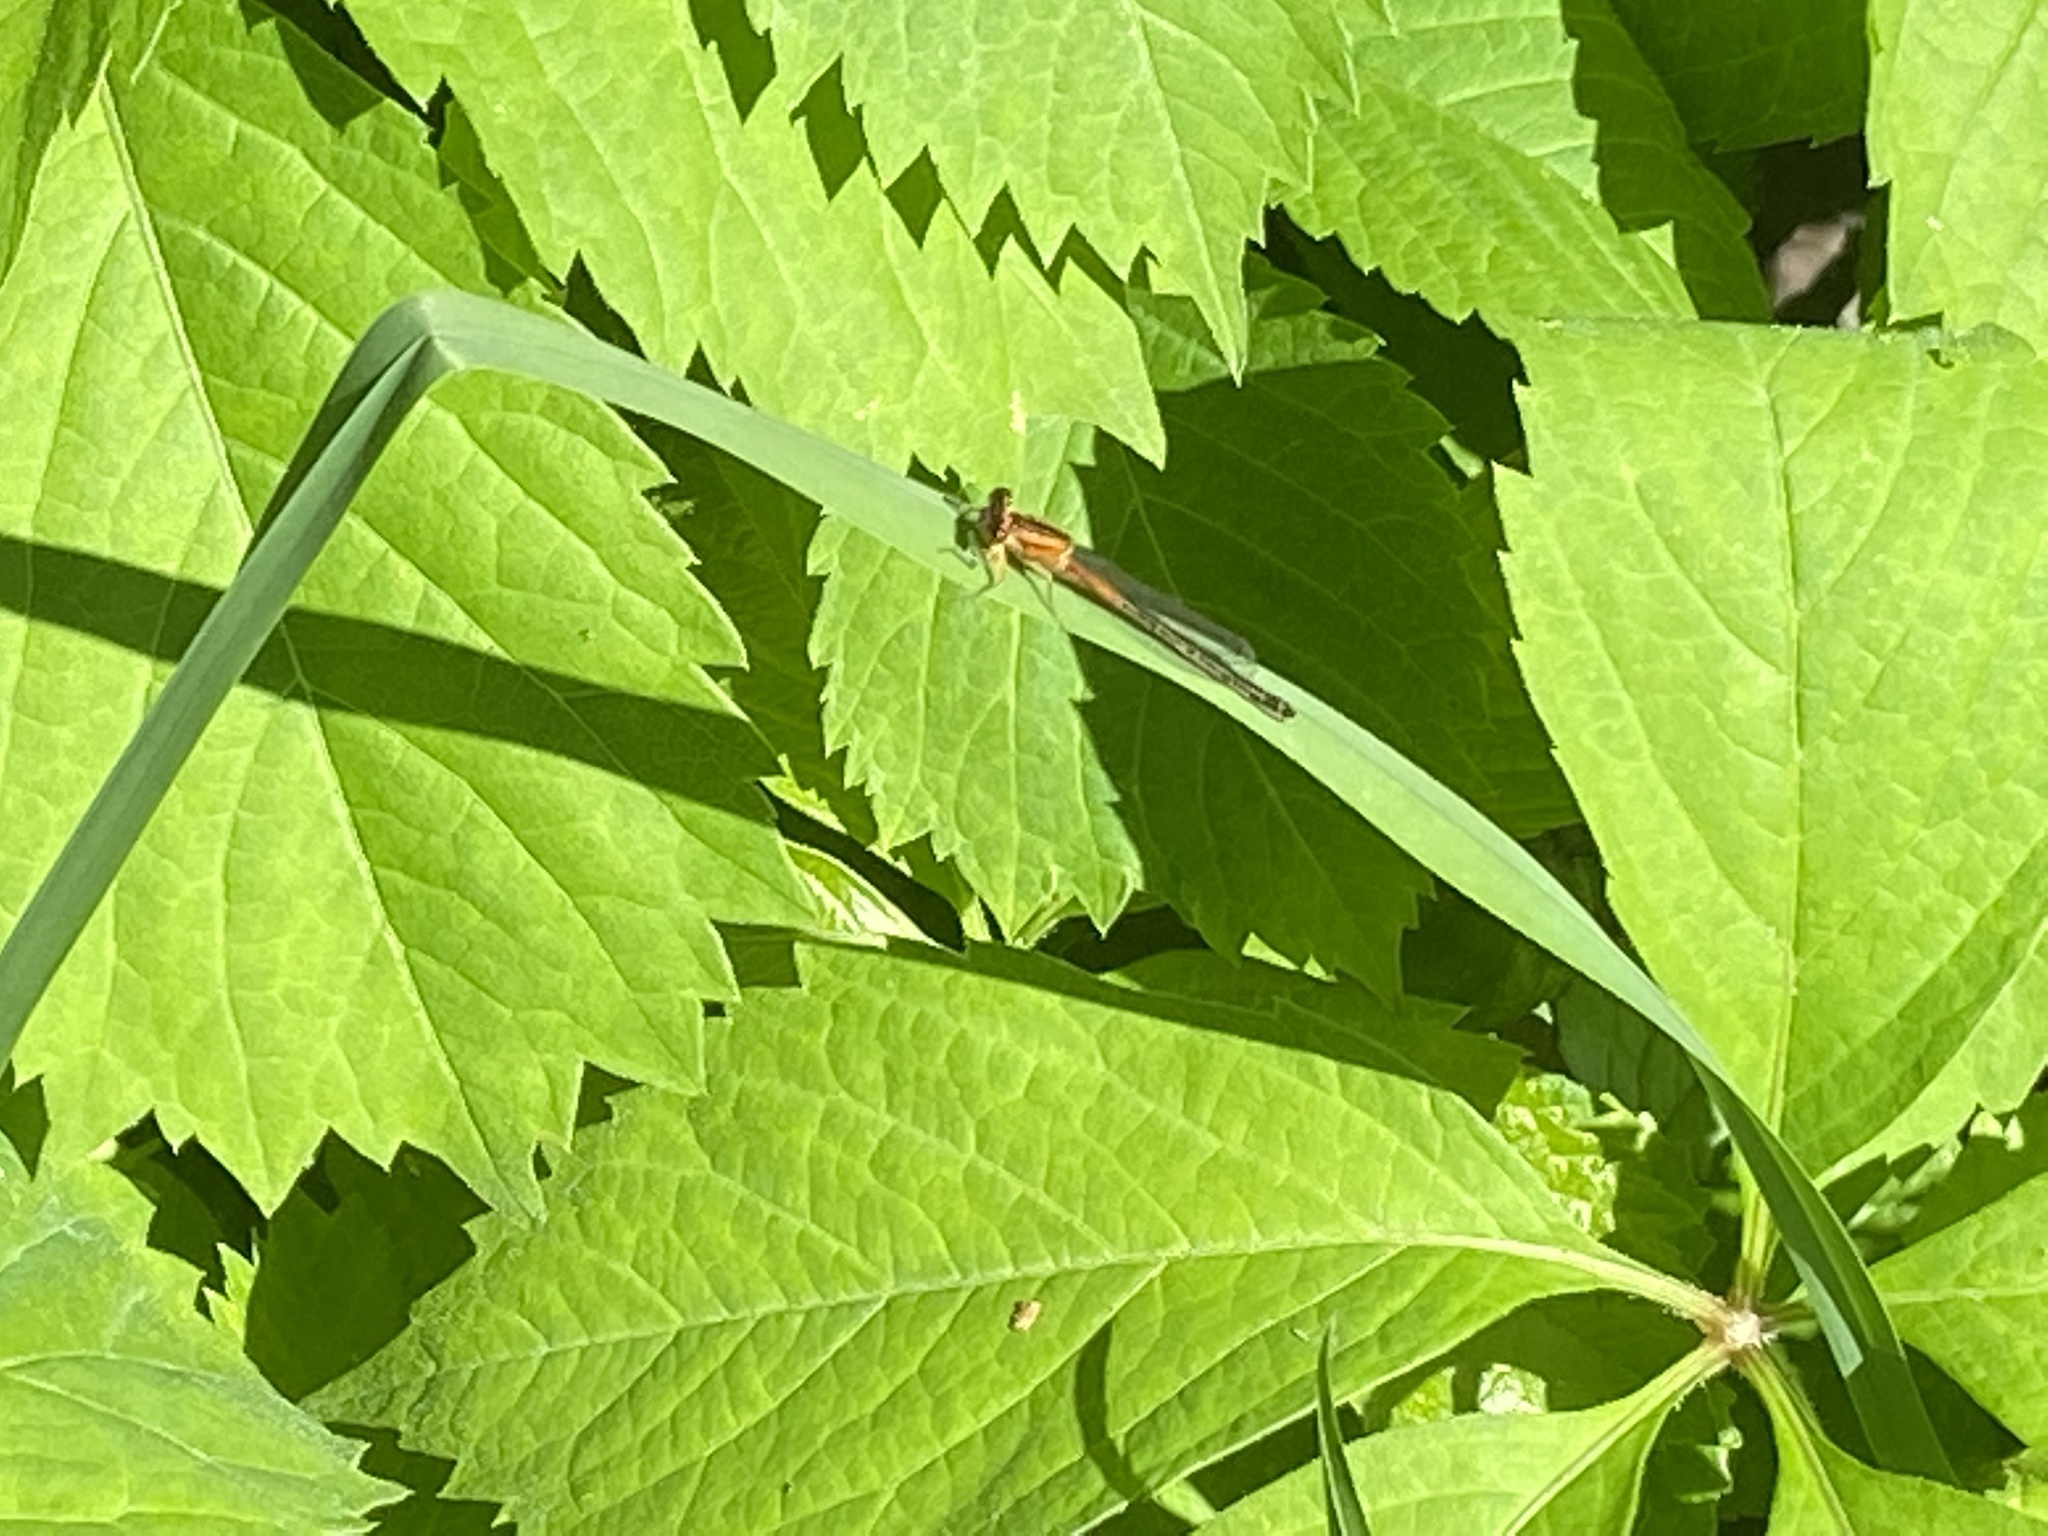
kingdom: Animalia
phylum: Arthropoda
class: Insecta
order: Odonata
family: Coenagrionidae
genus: Ischnura
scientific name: Ischnura verticalis
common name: Eastern forktail
